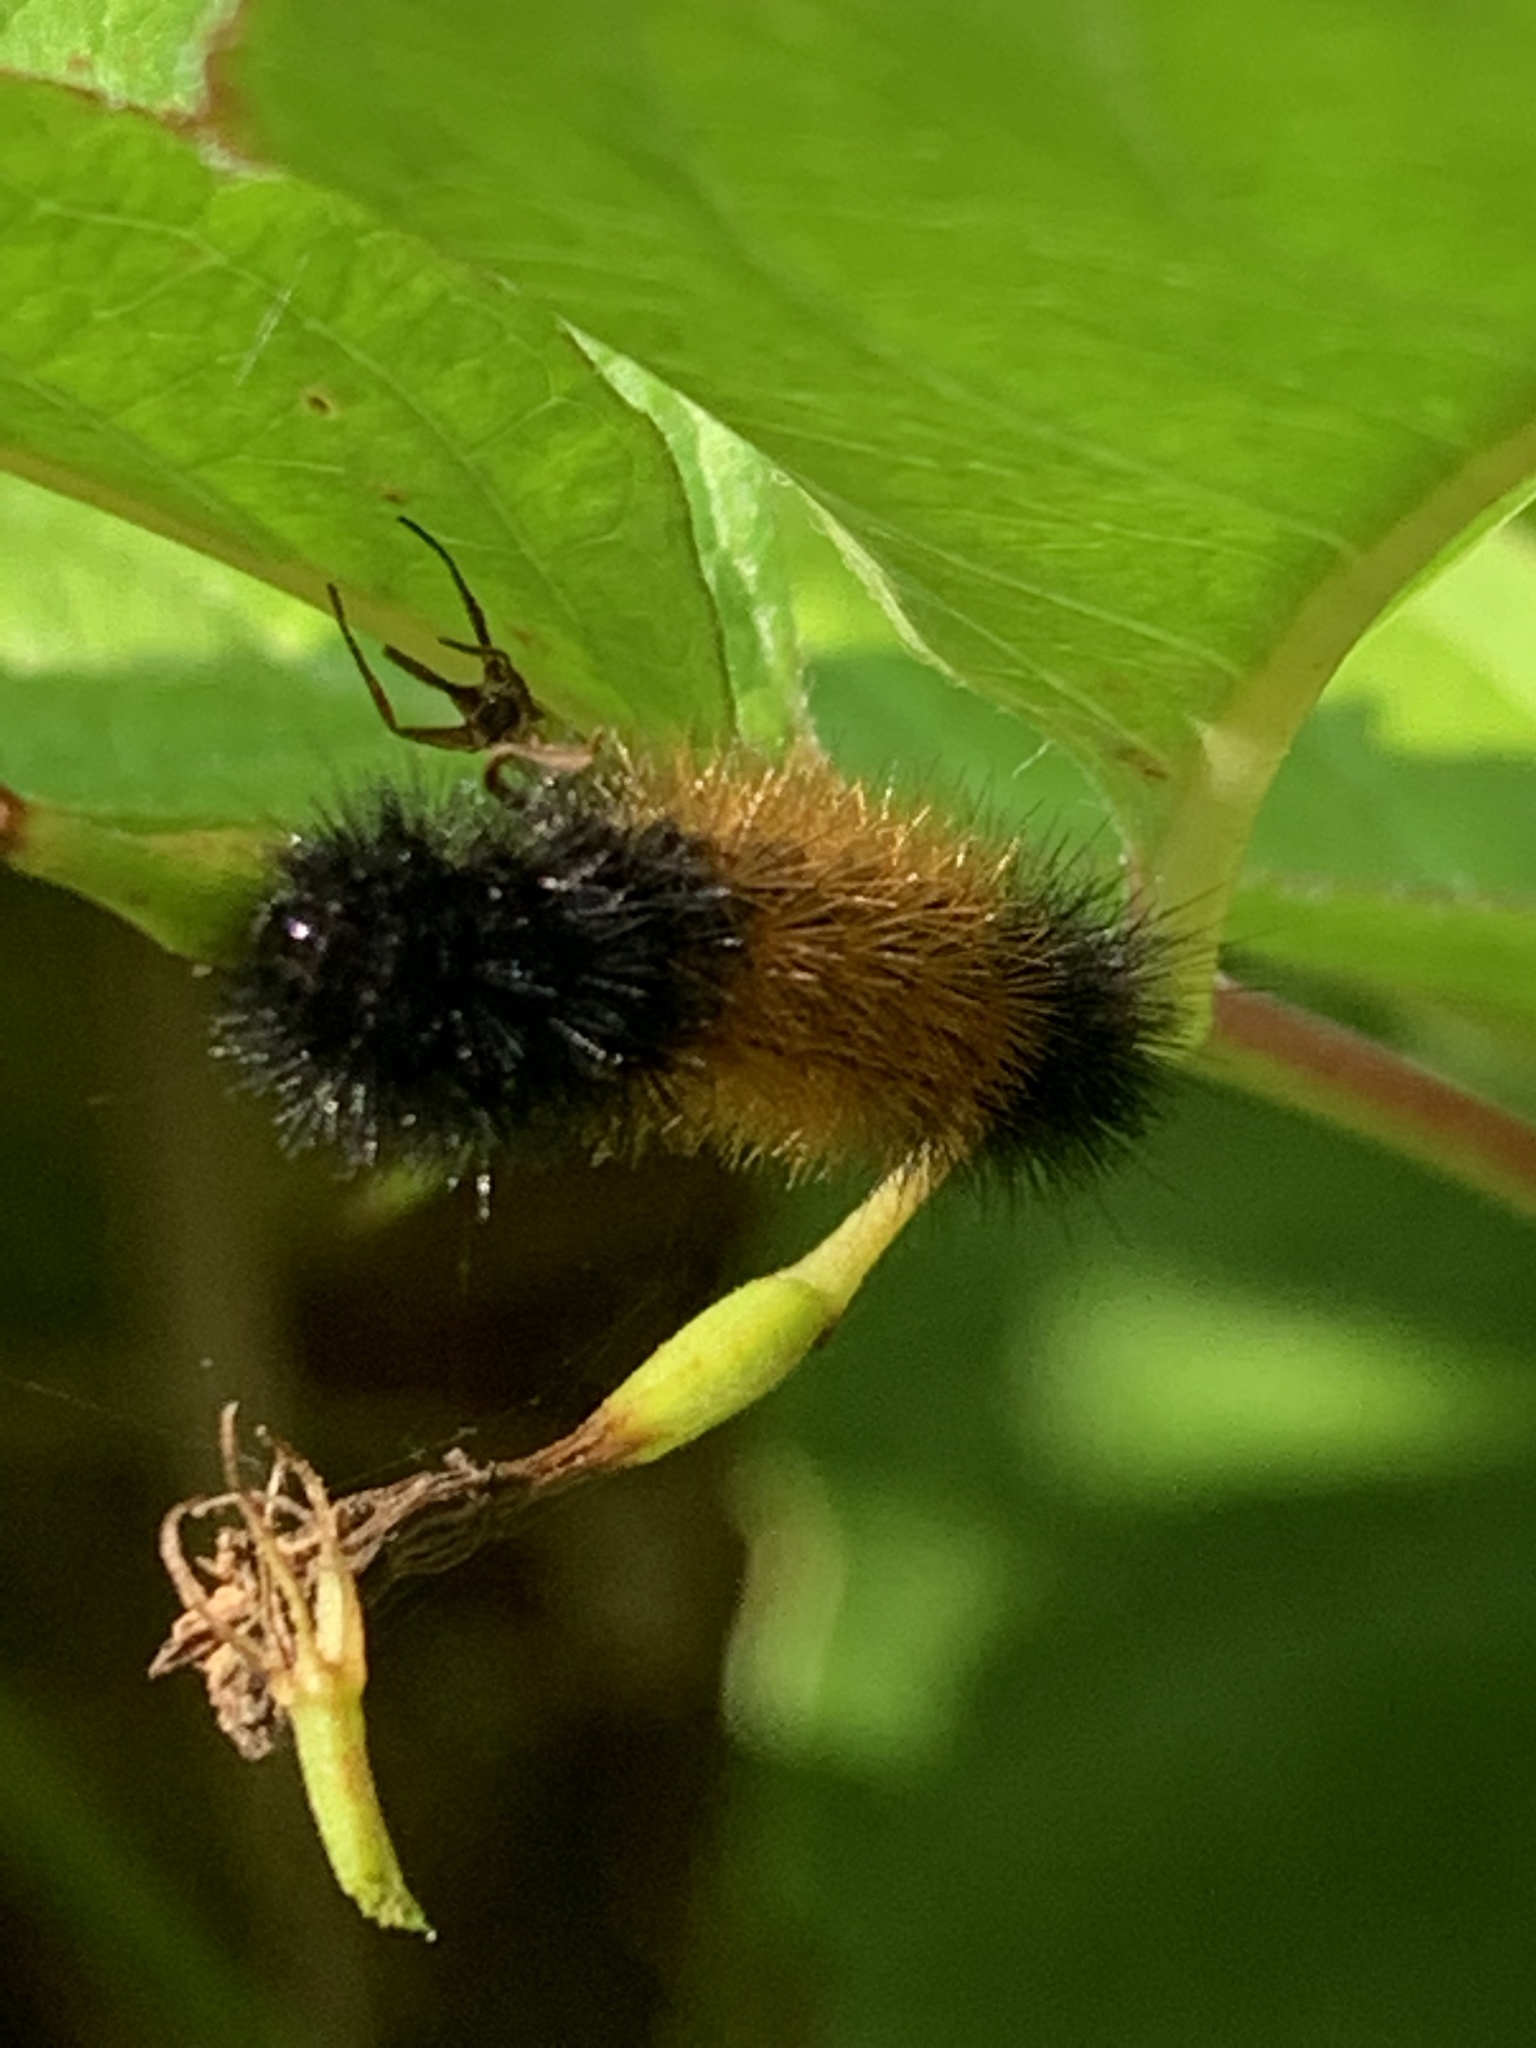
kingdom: Animalia
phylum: Arthropoda
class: Insecta
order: Lepidoptera
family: Erebidae
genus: Pyrrharctia
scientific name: Pyrrharctia isabella
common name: Isabella tiger moth
